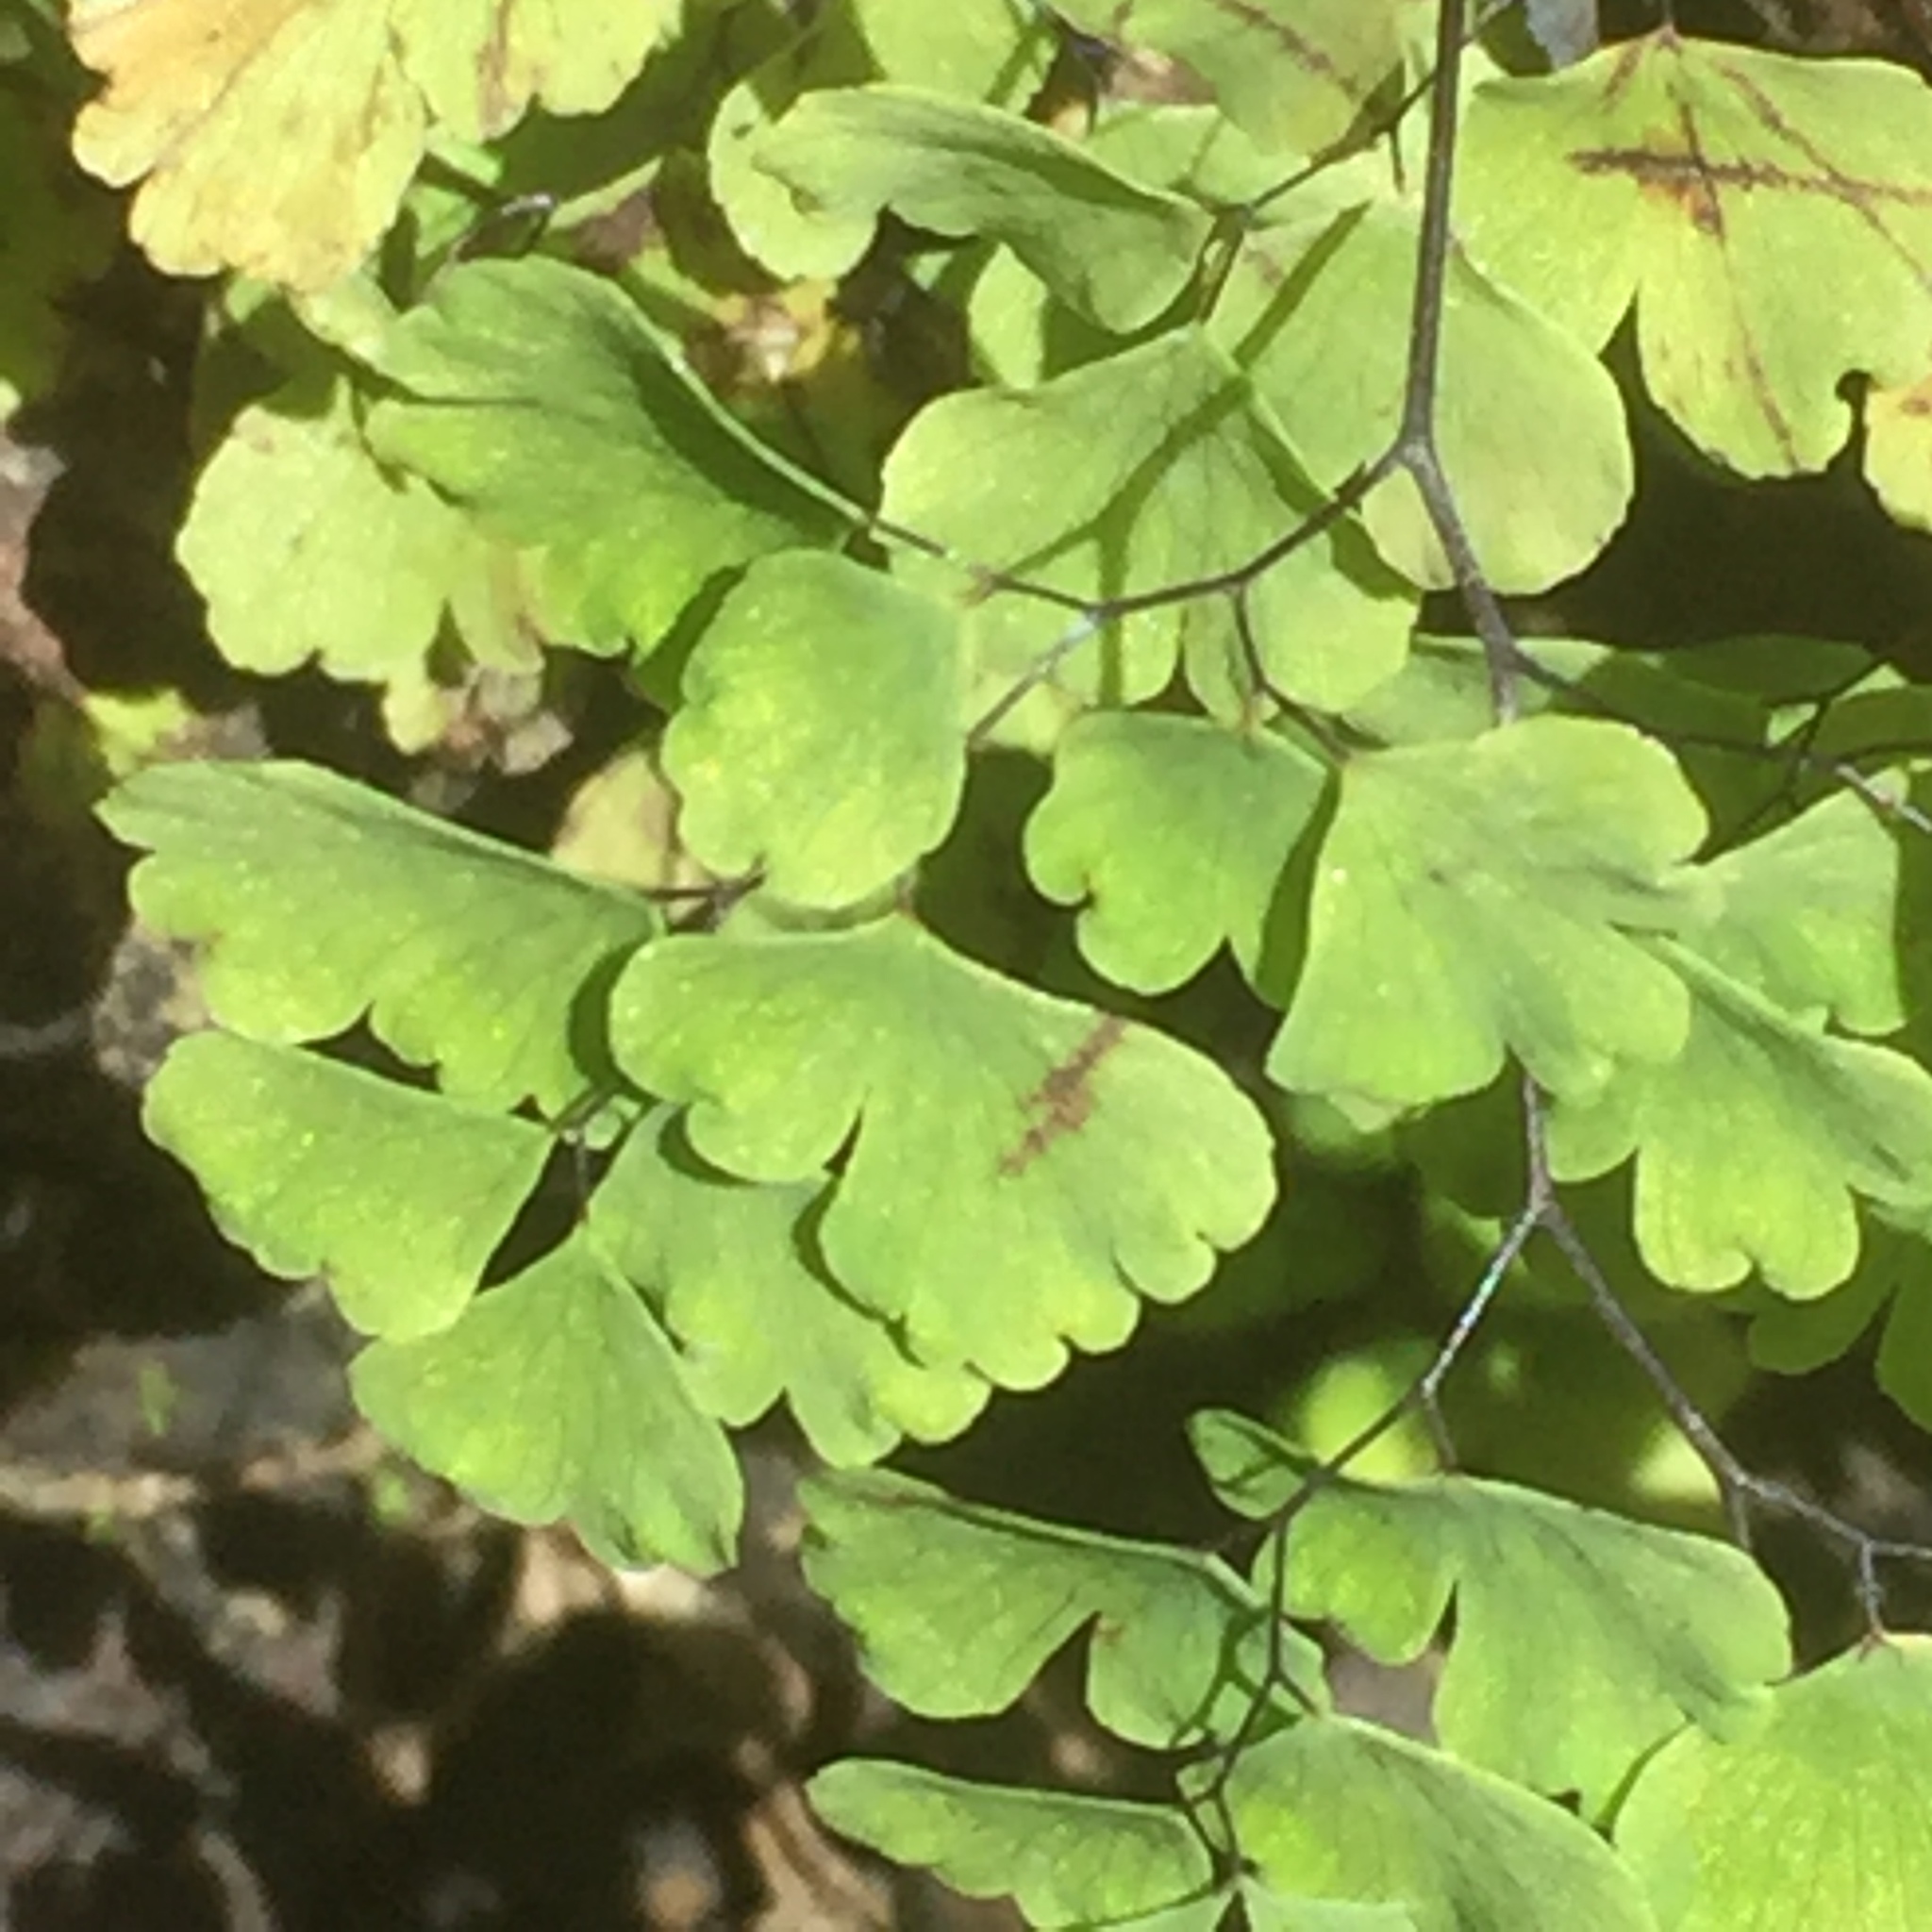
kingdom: Plantae
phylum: Tracheophyta
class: Polypodiopsida
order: Polypodiales
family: Pteridaceae
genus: Adiantum
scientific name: Adiantum capillus-veneris
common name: Maidenhair fern
